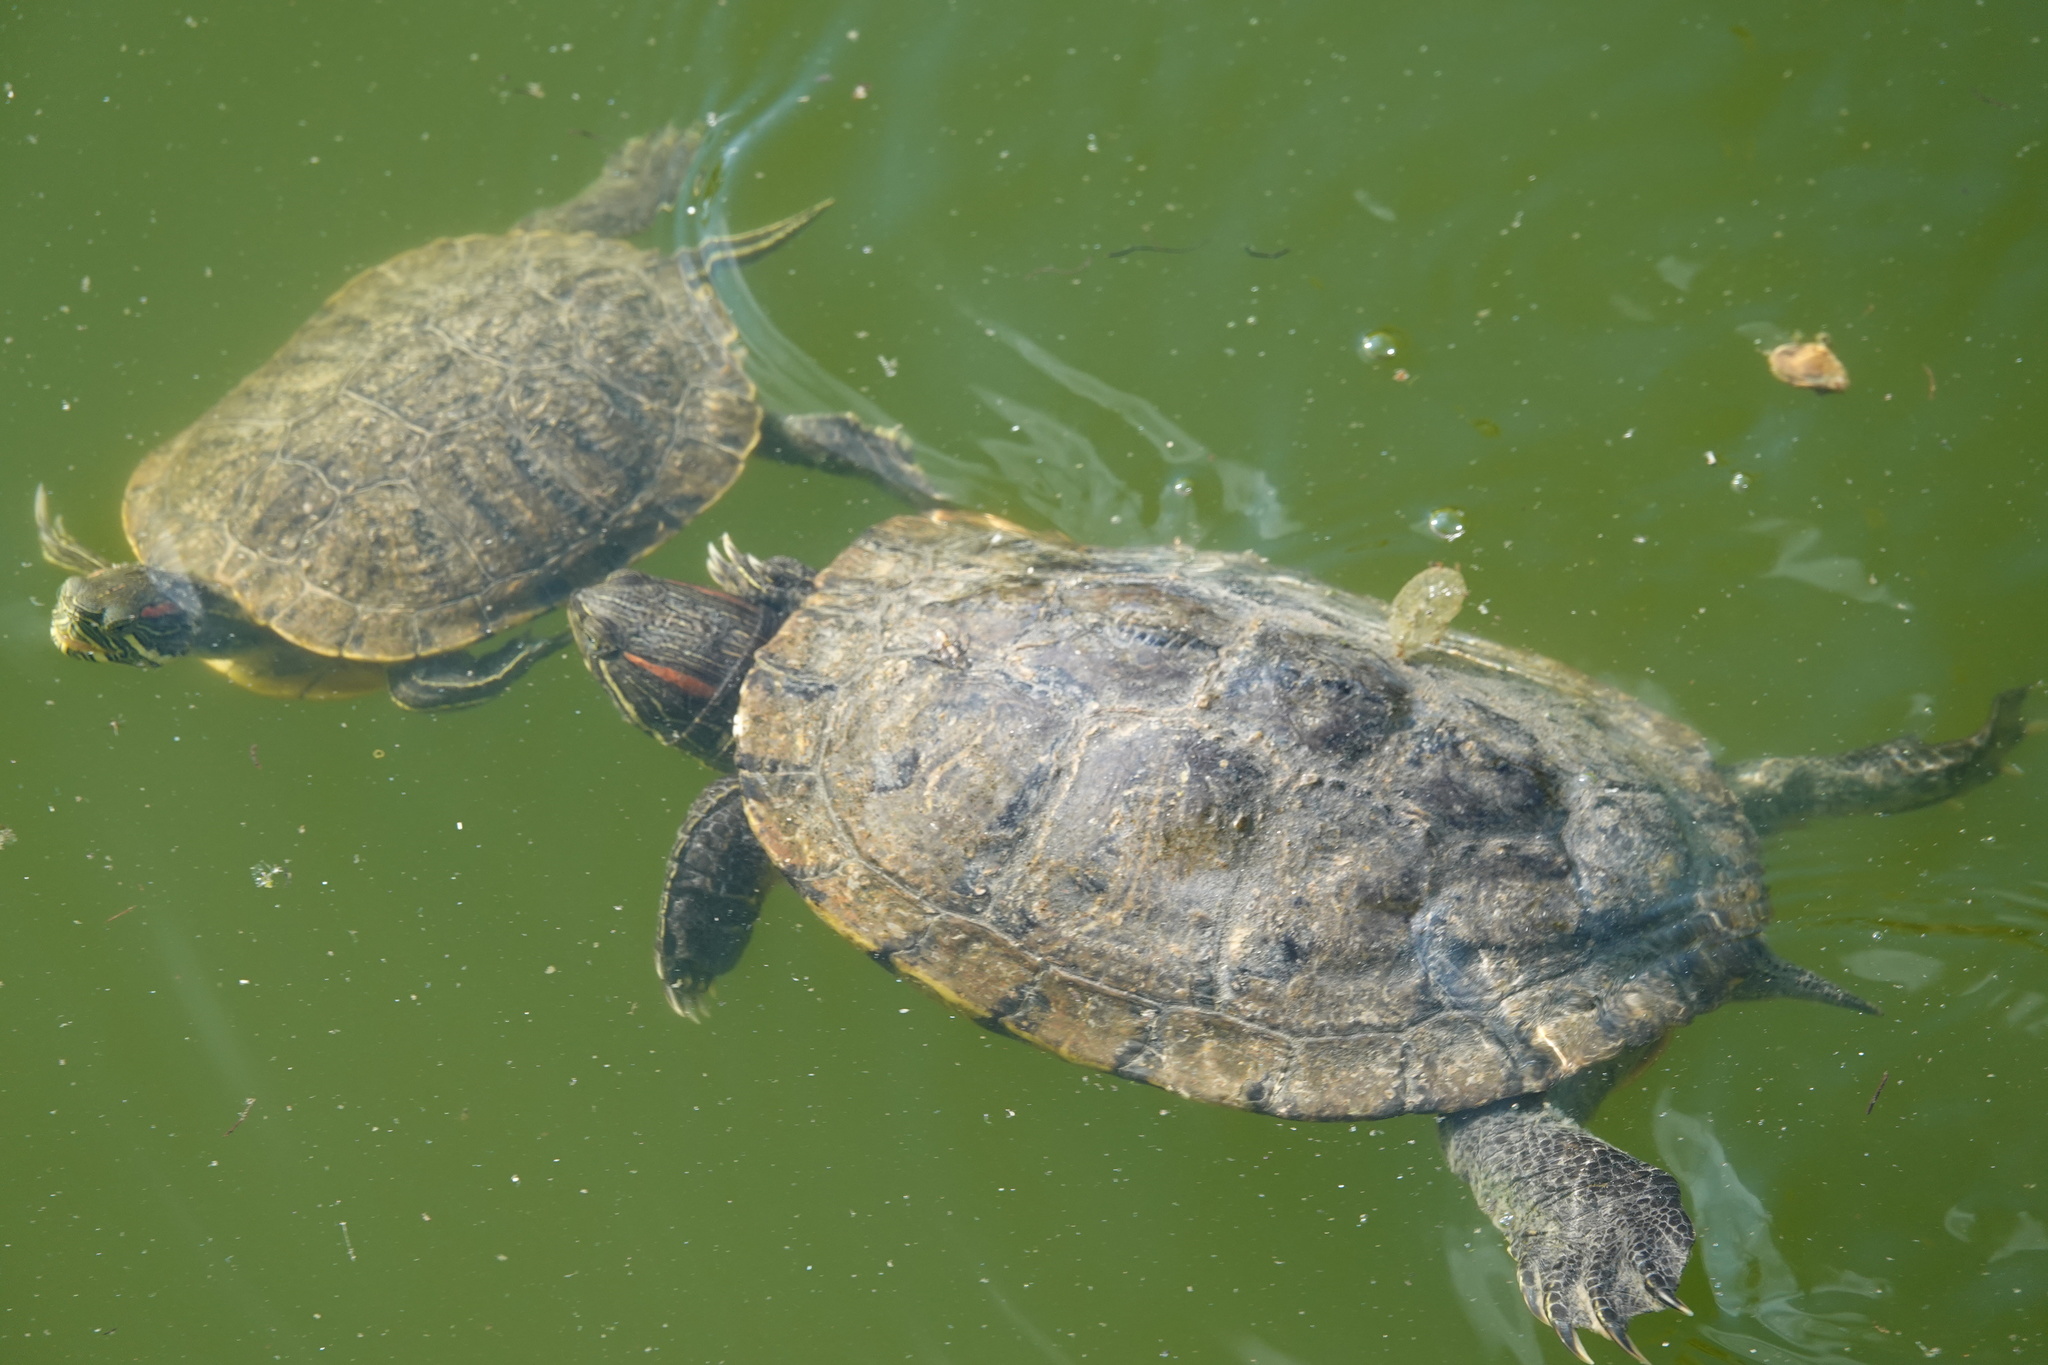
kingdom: Animalia
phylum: Chordata
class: Testudines
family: Emydidae
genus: Trachemys
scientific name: Trachemys scripta
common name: Slider
